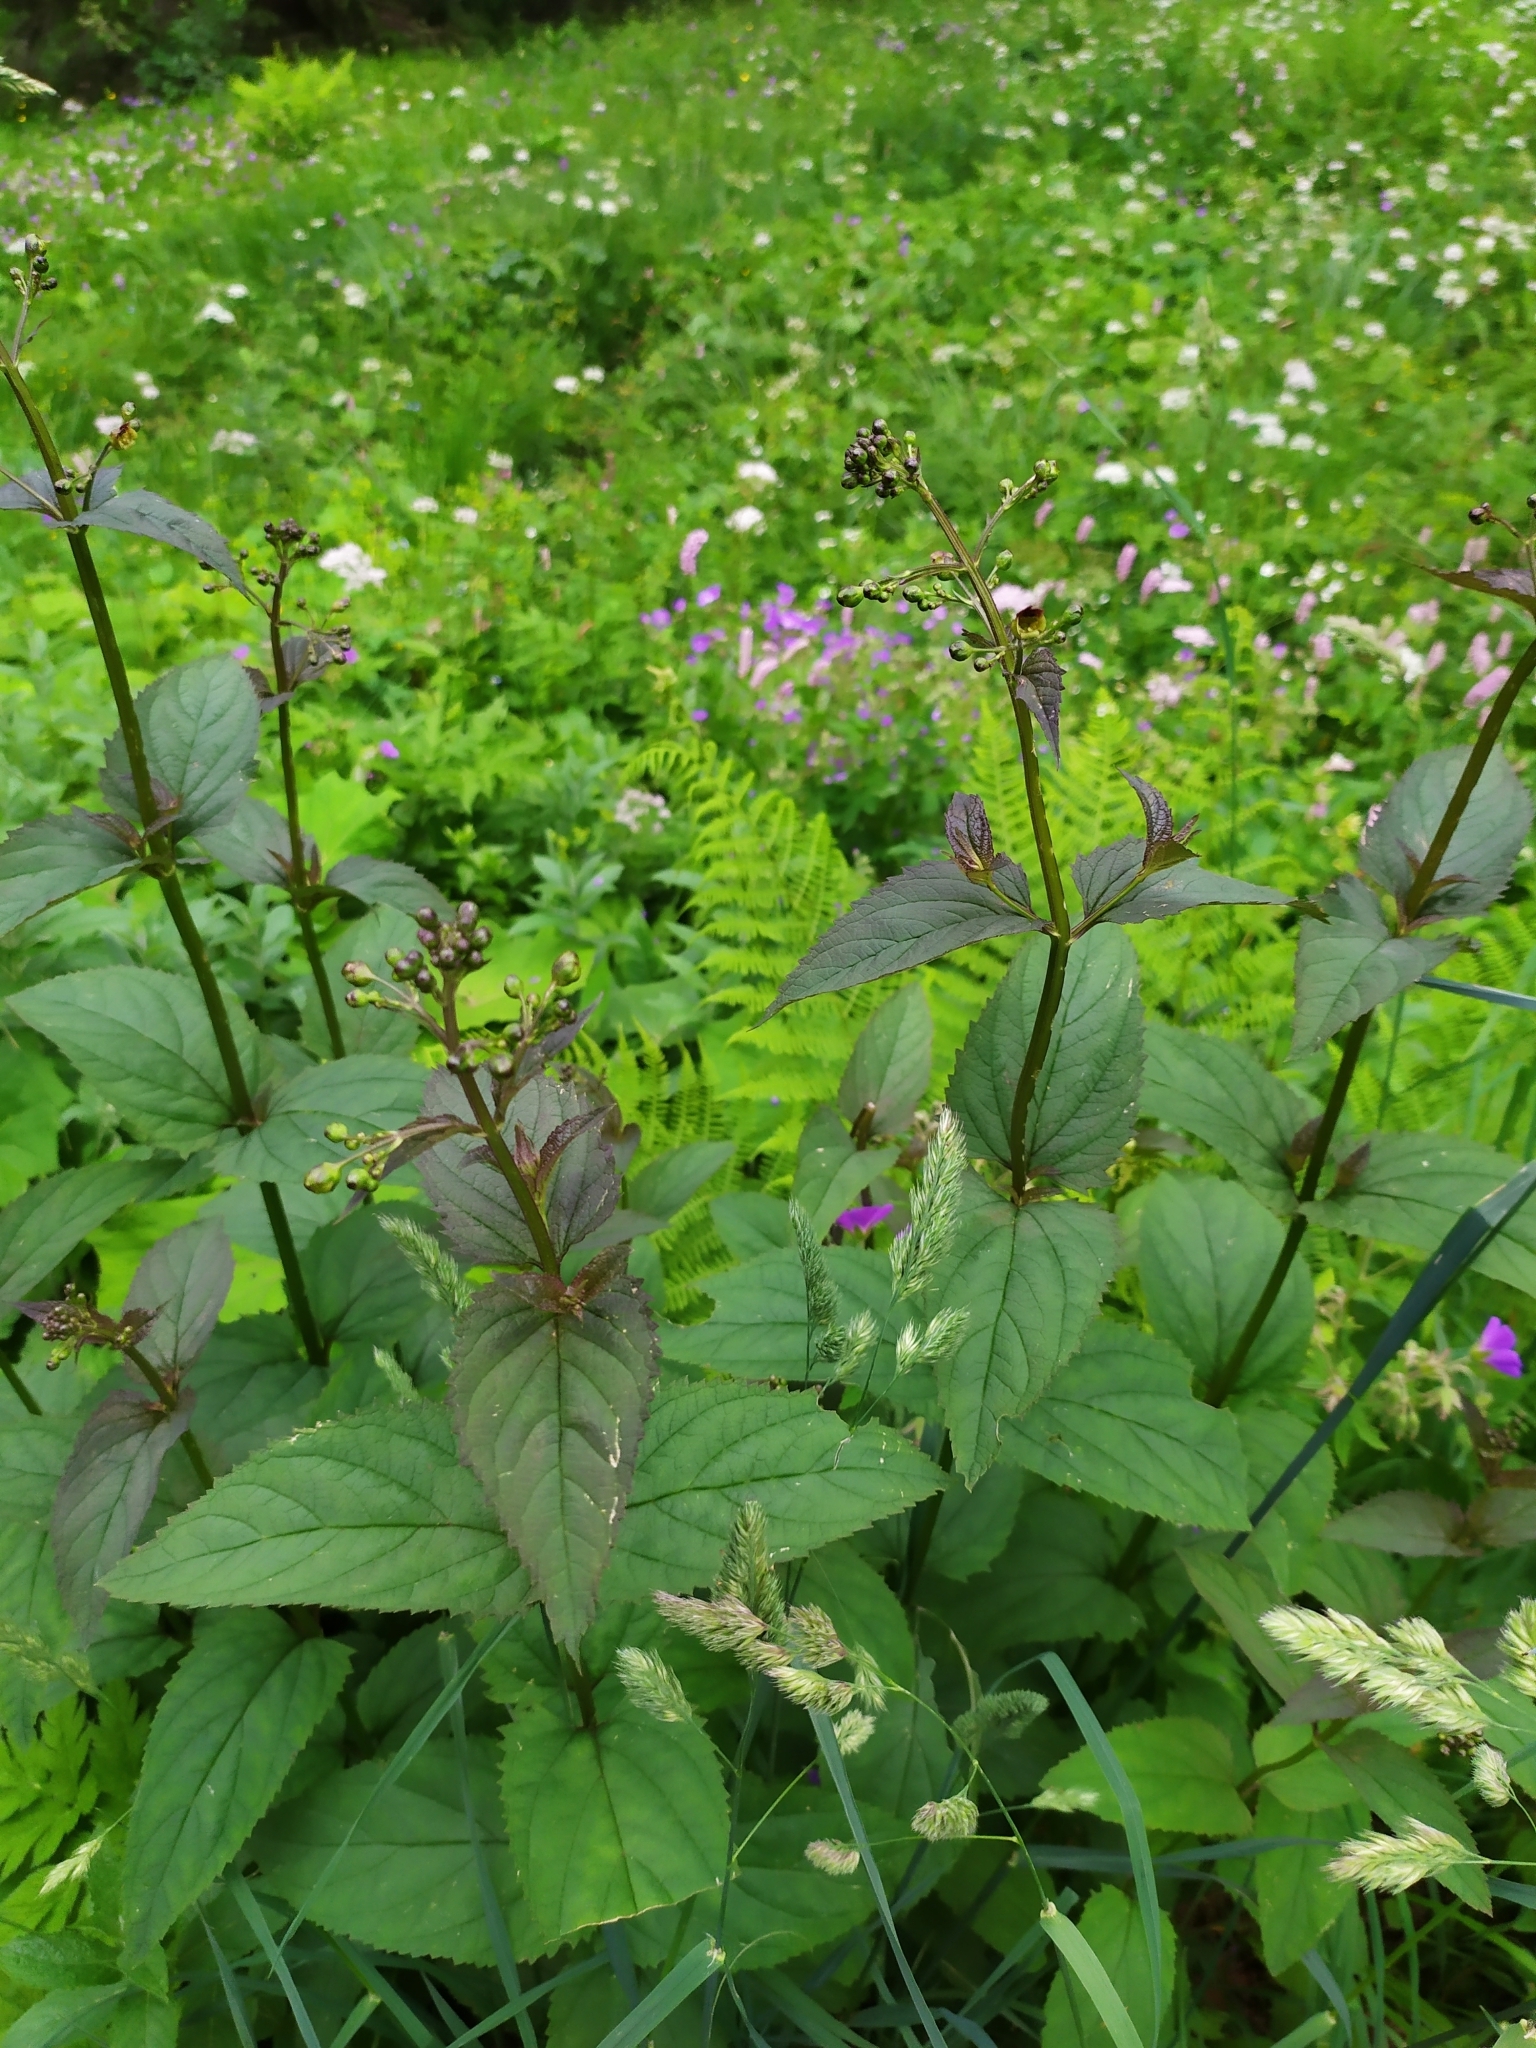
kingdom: Plantae
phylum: Tracheophyta
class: Magnoliopsida
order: Lamiales
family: Scrophulariaceae
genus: Scrophularia
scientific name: Scrophularia nodosa
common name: Common figwort
